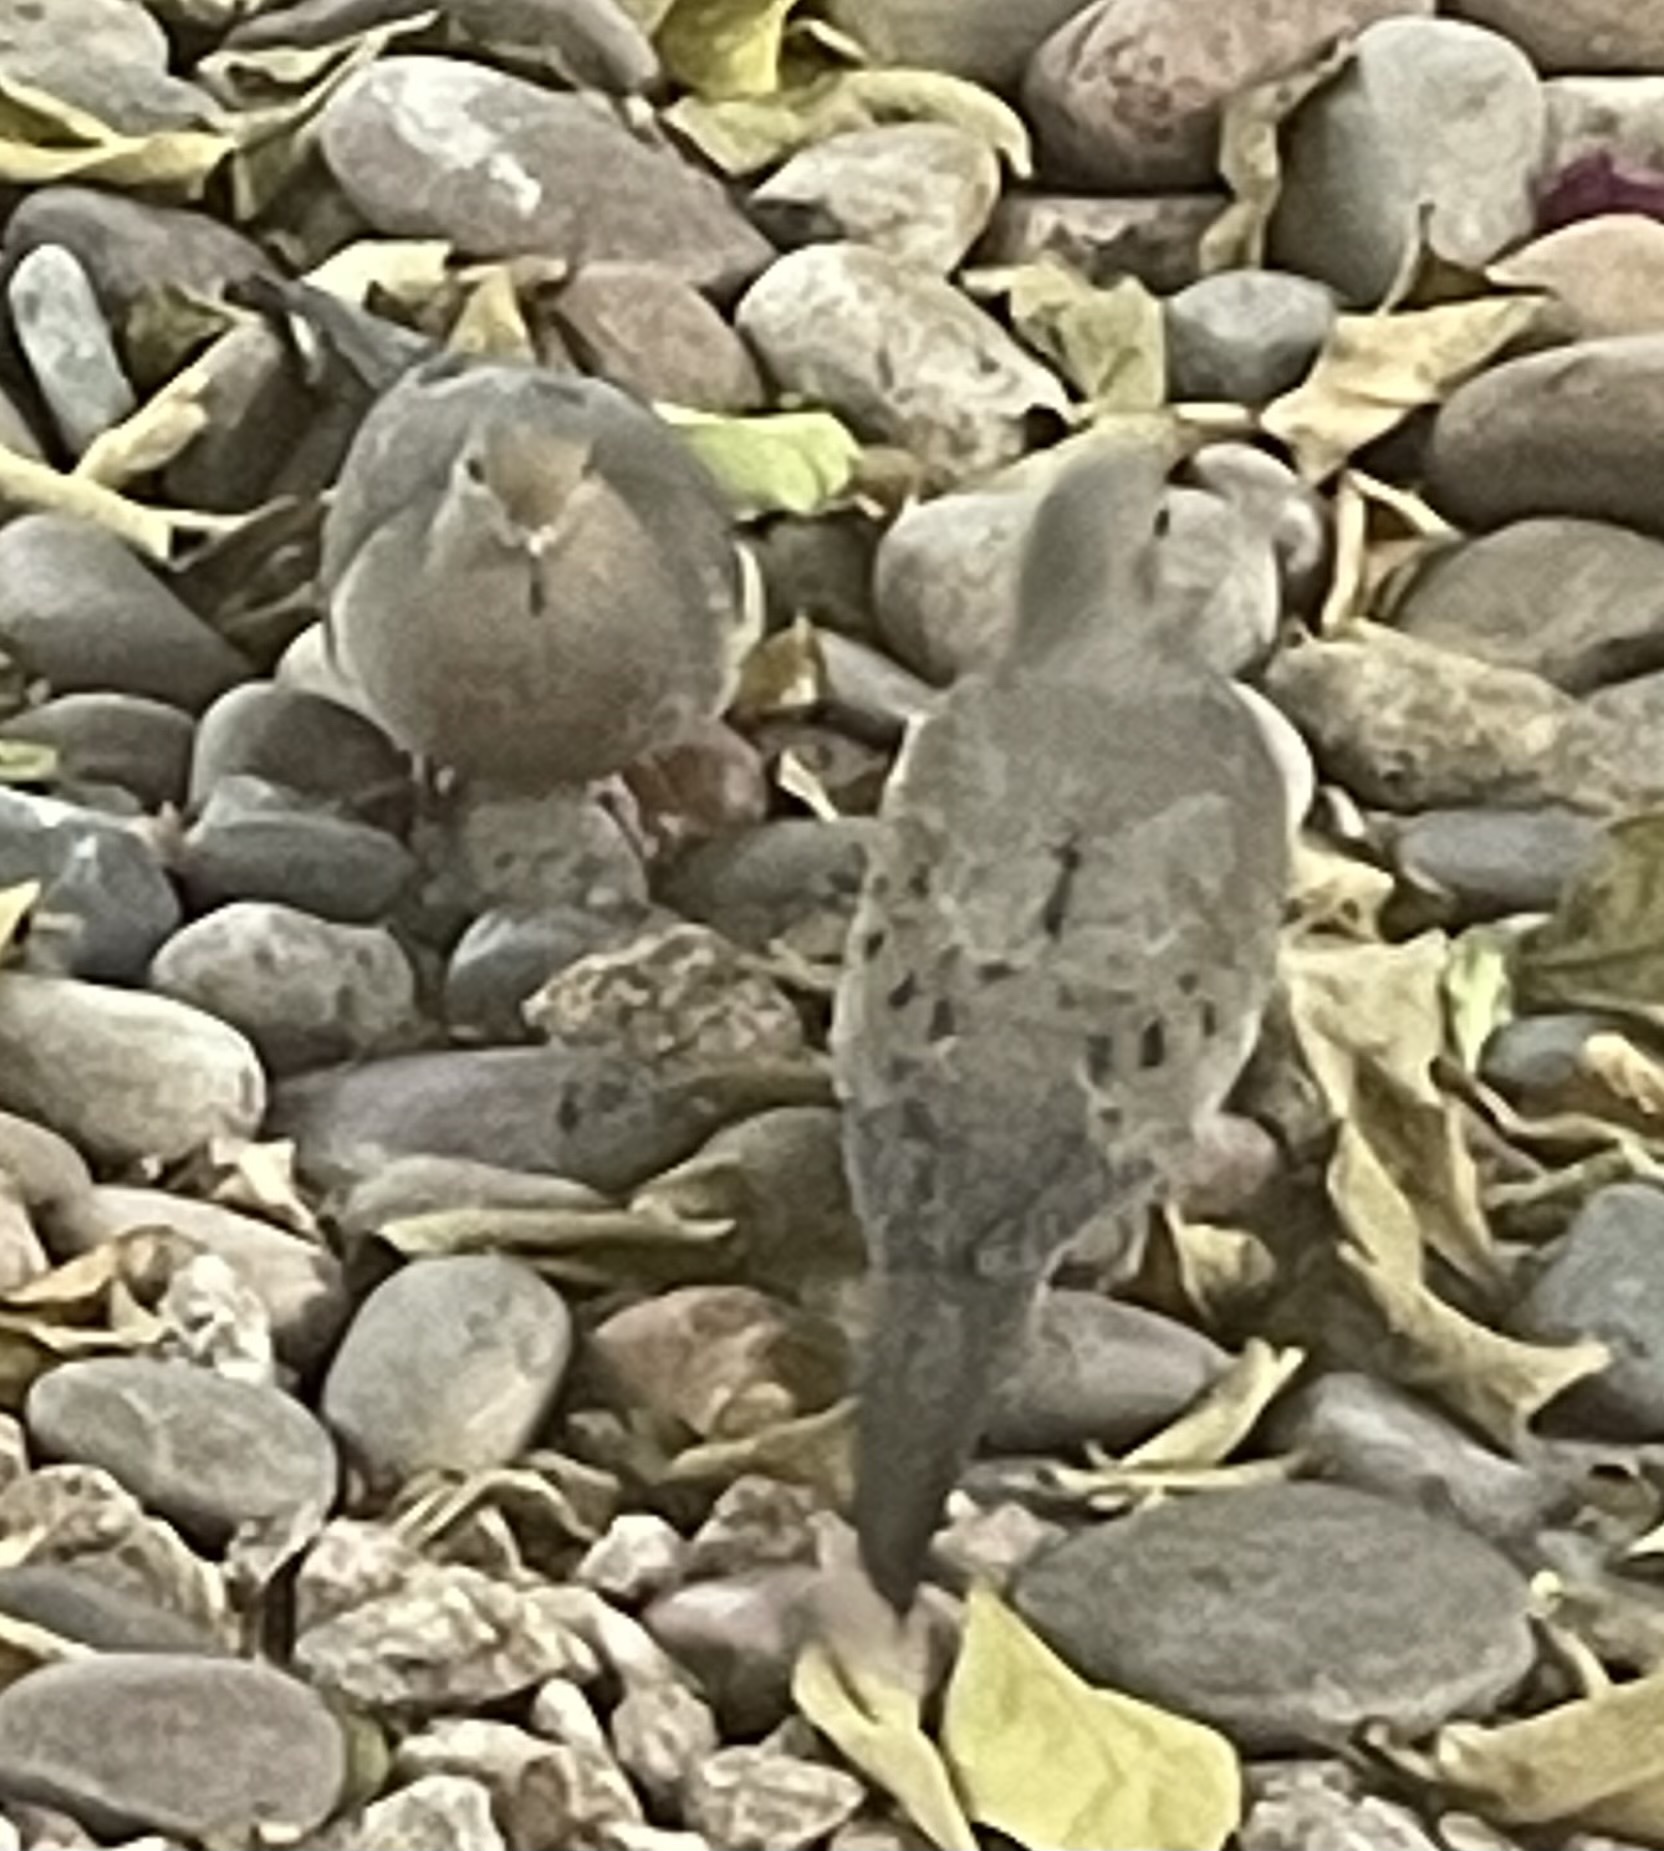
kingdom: Animalia
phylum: Chordata
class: Aves
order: Columbiformes
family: Columbidae
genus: Zenaida
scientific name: Zenaida macroura
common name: Mourning dove
